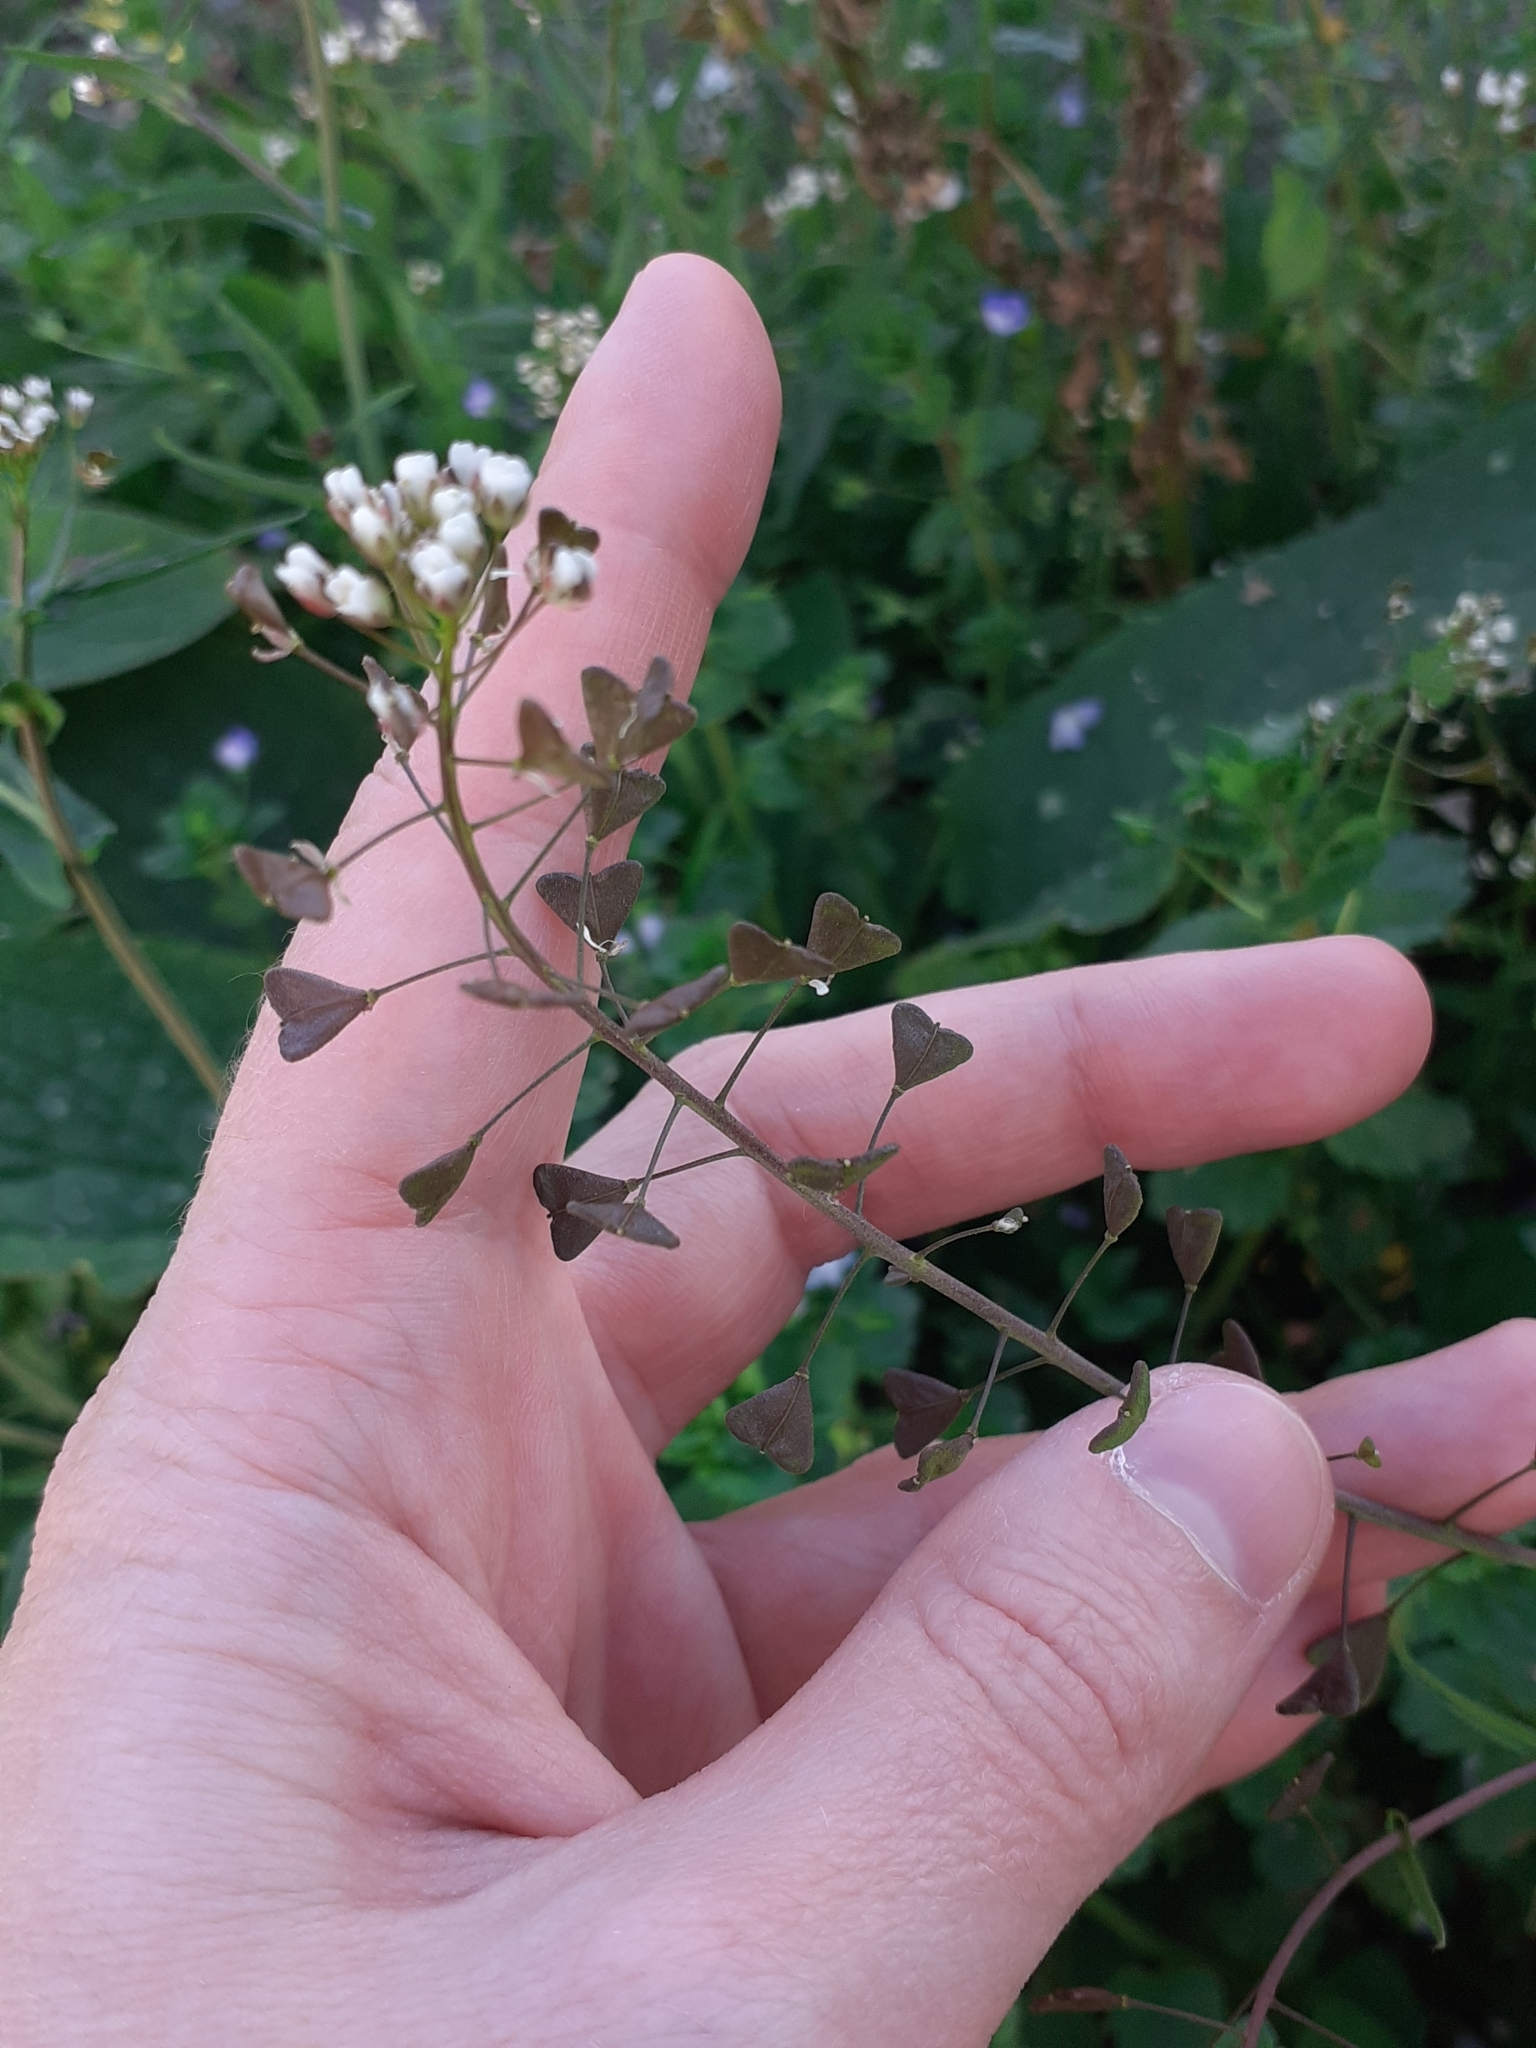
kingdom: Plantae
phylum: Tracheophyta
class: Magnoliopsida
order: Brassicales
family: Brassicaceae
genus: Capsella
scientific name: Capsella bursa-pastoris
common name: Shepherd's purse
